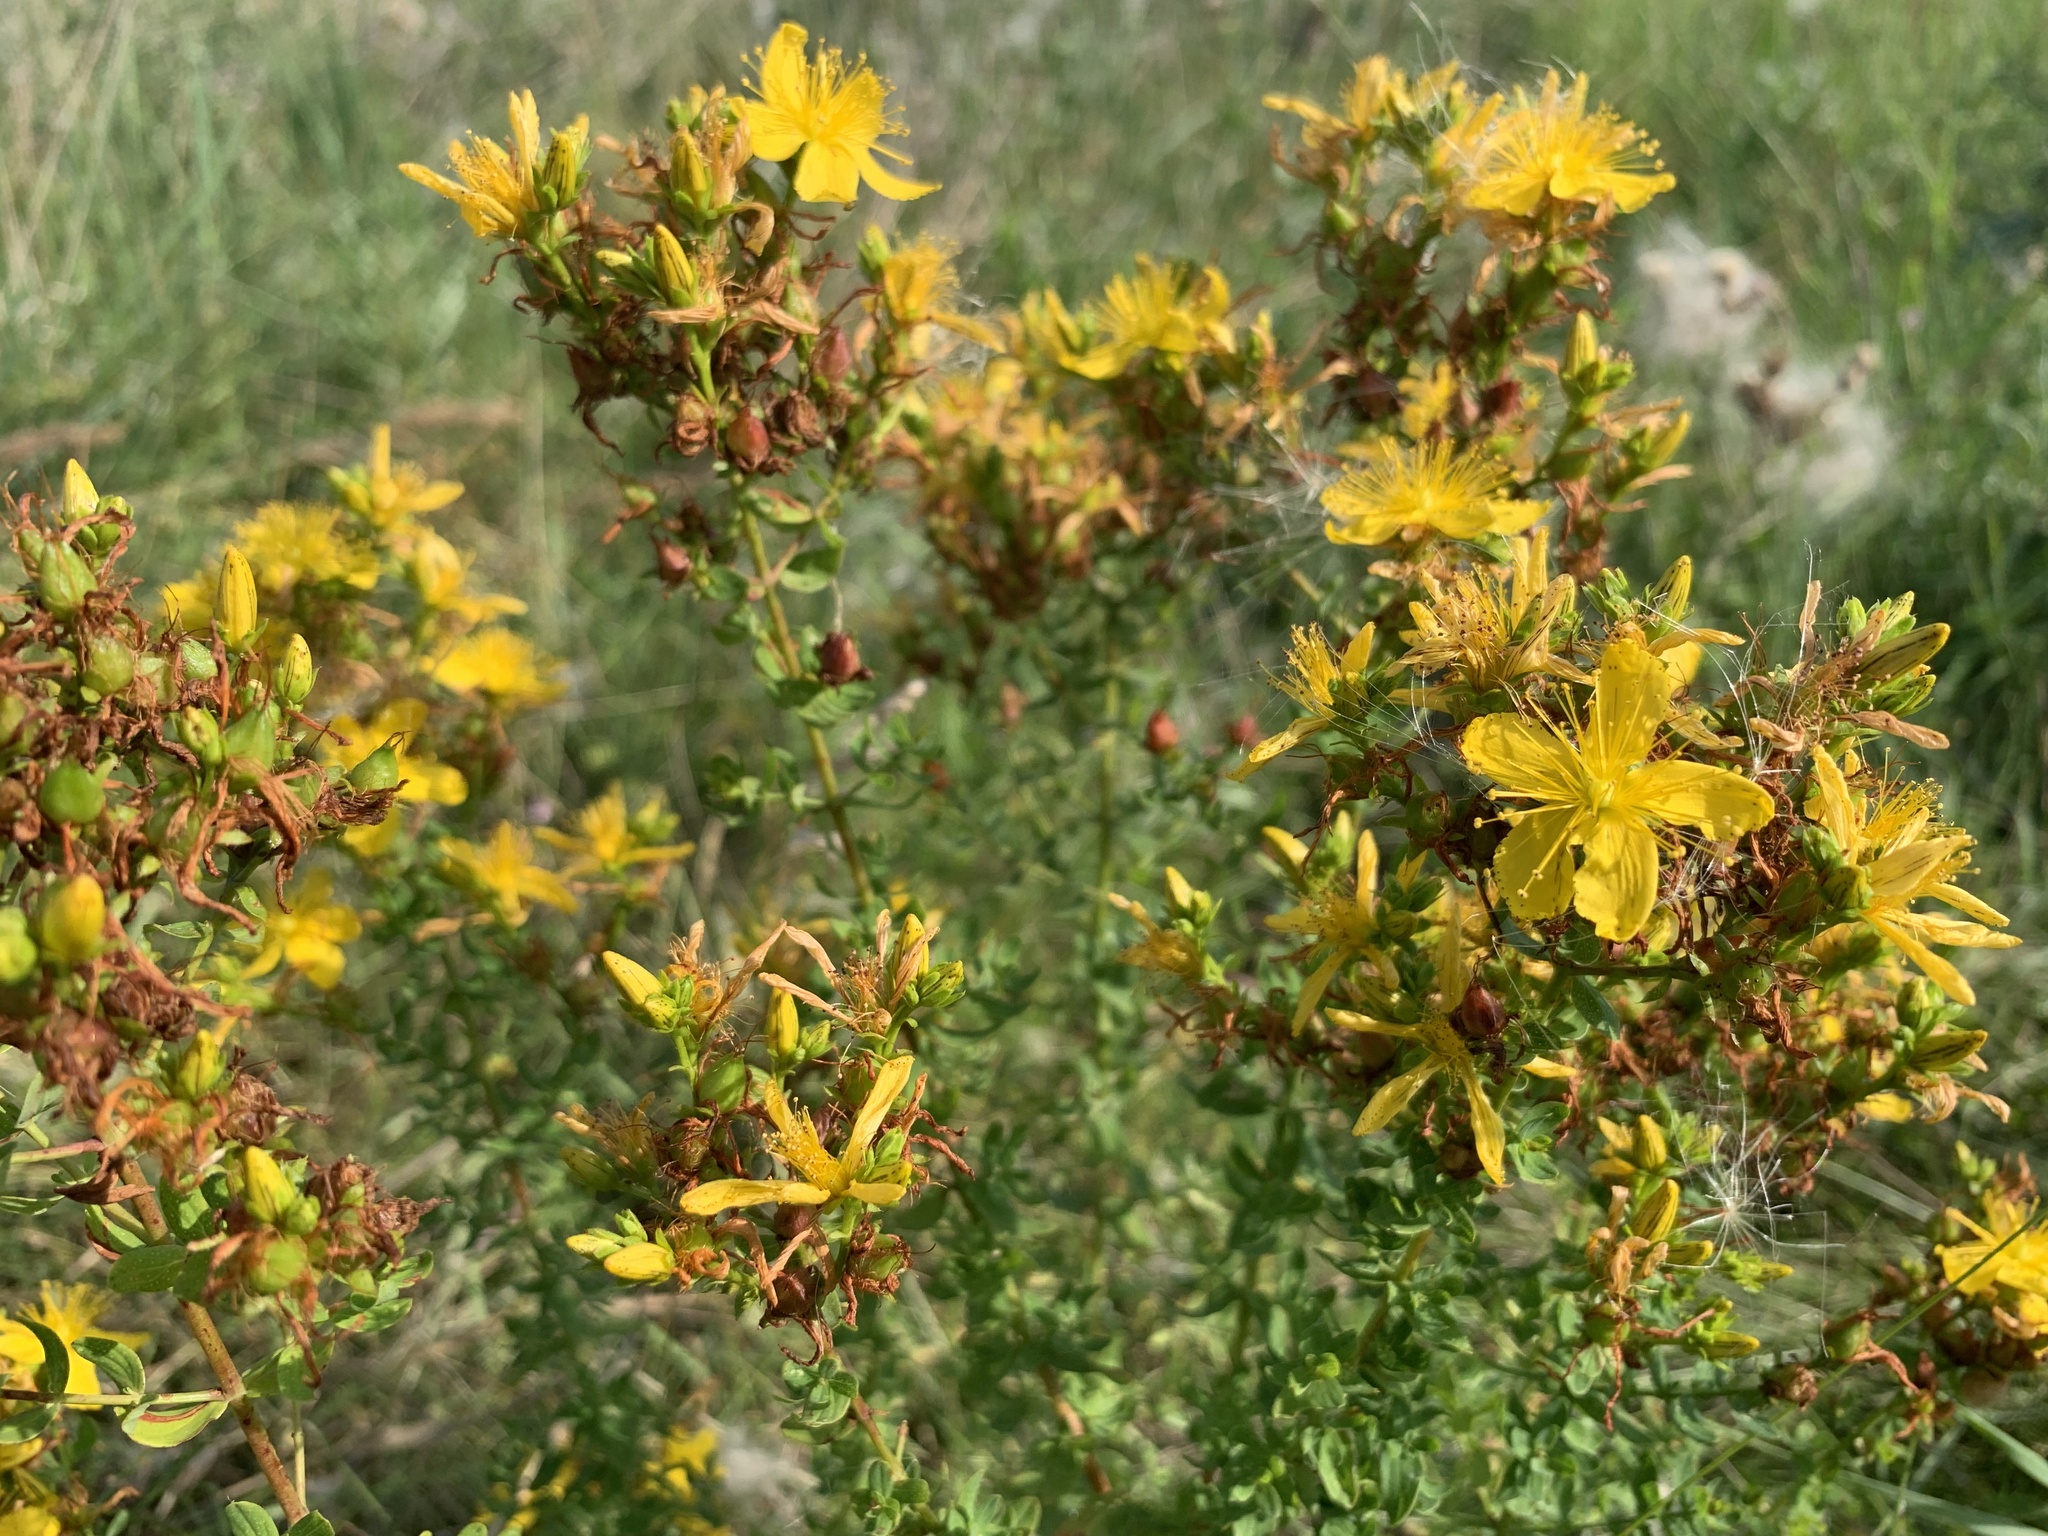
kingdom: Plantae
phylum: Tracheophyta
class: Magnoliopsida
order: Malpighiales
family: Hypericaceae
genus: Hypericum
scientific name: Hypericum perforatum
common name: Common st. johnswort
